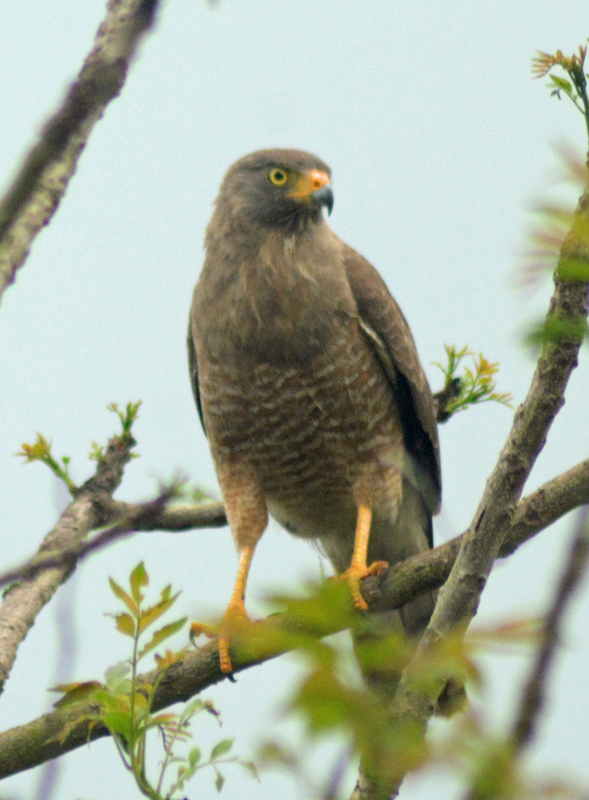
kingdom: Animalia
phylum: Chordata
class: Aves
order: Accipitriformes
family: Accipitridae
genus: Rupornis
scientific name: Rupornis magnirostris
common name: Roadside hawk
